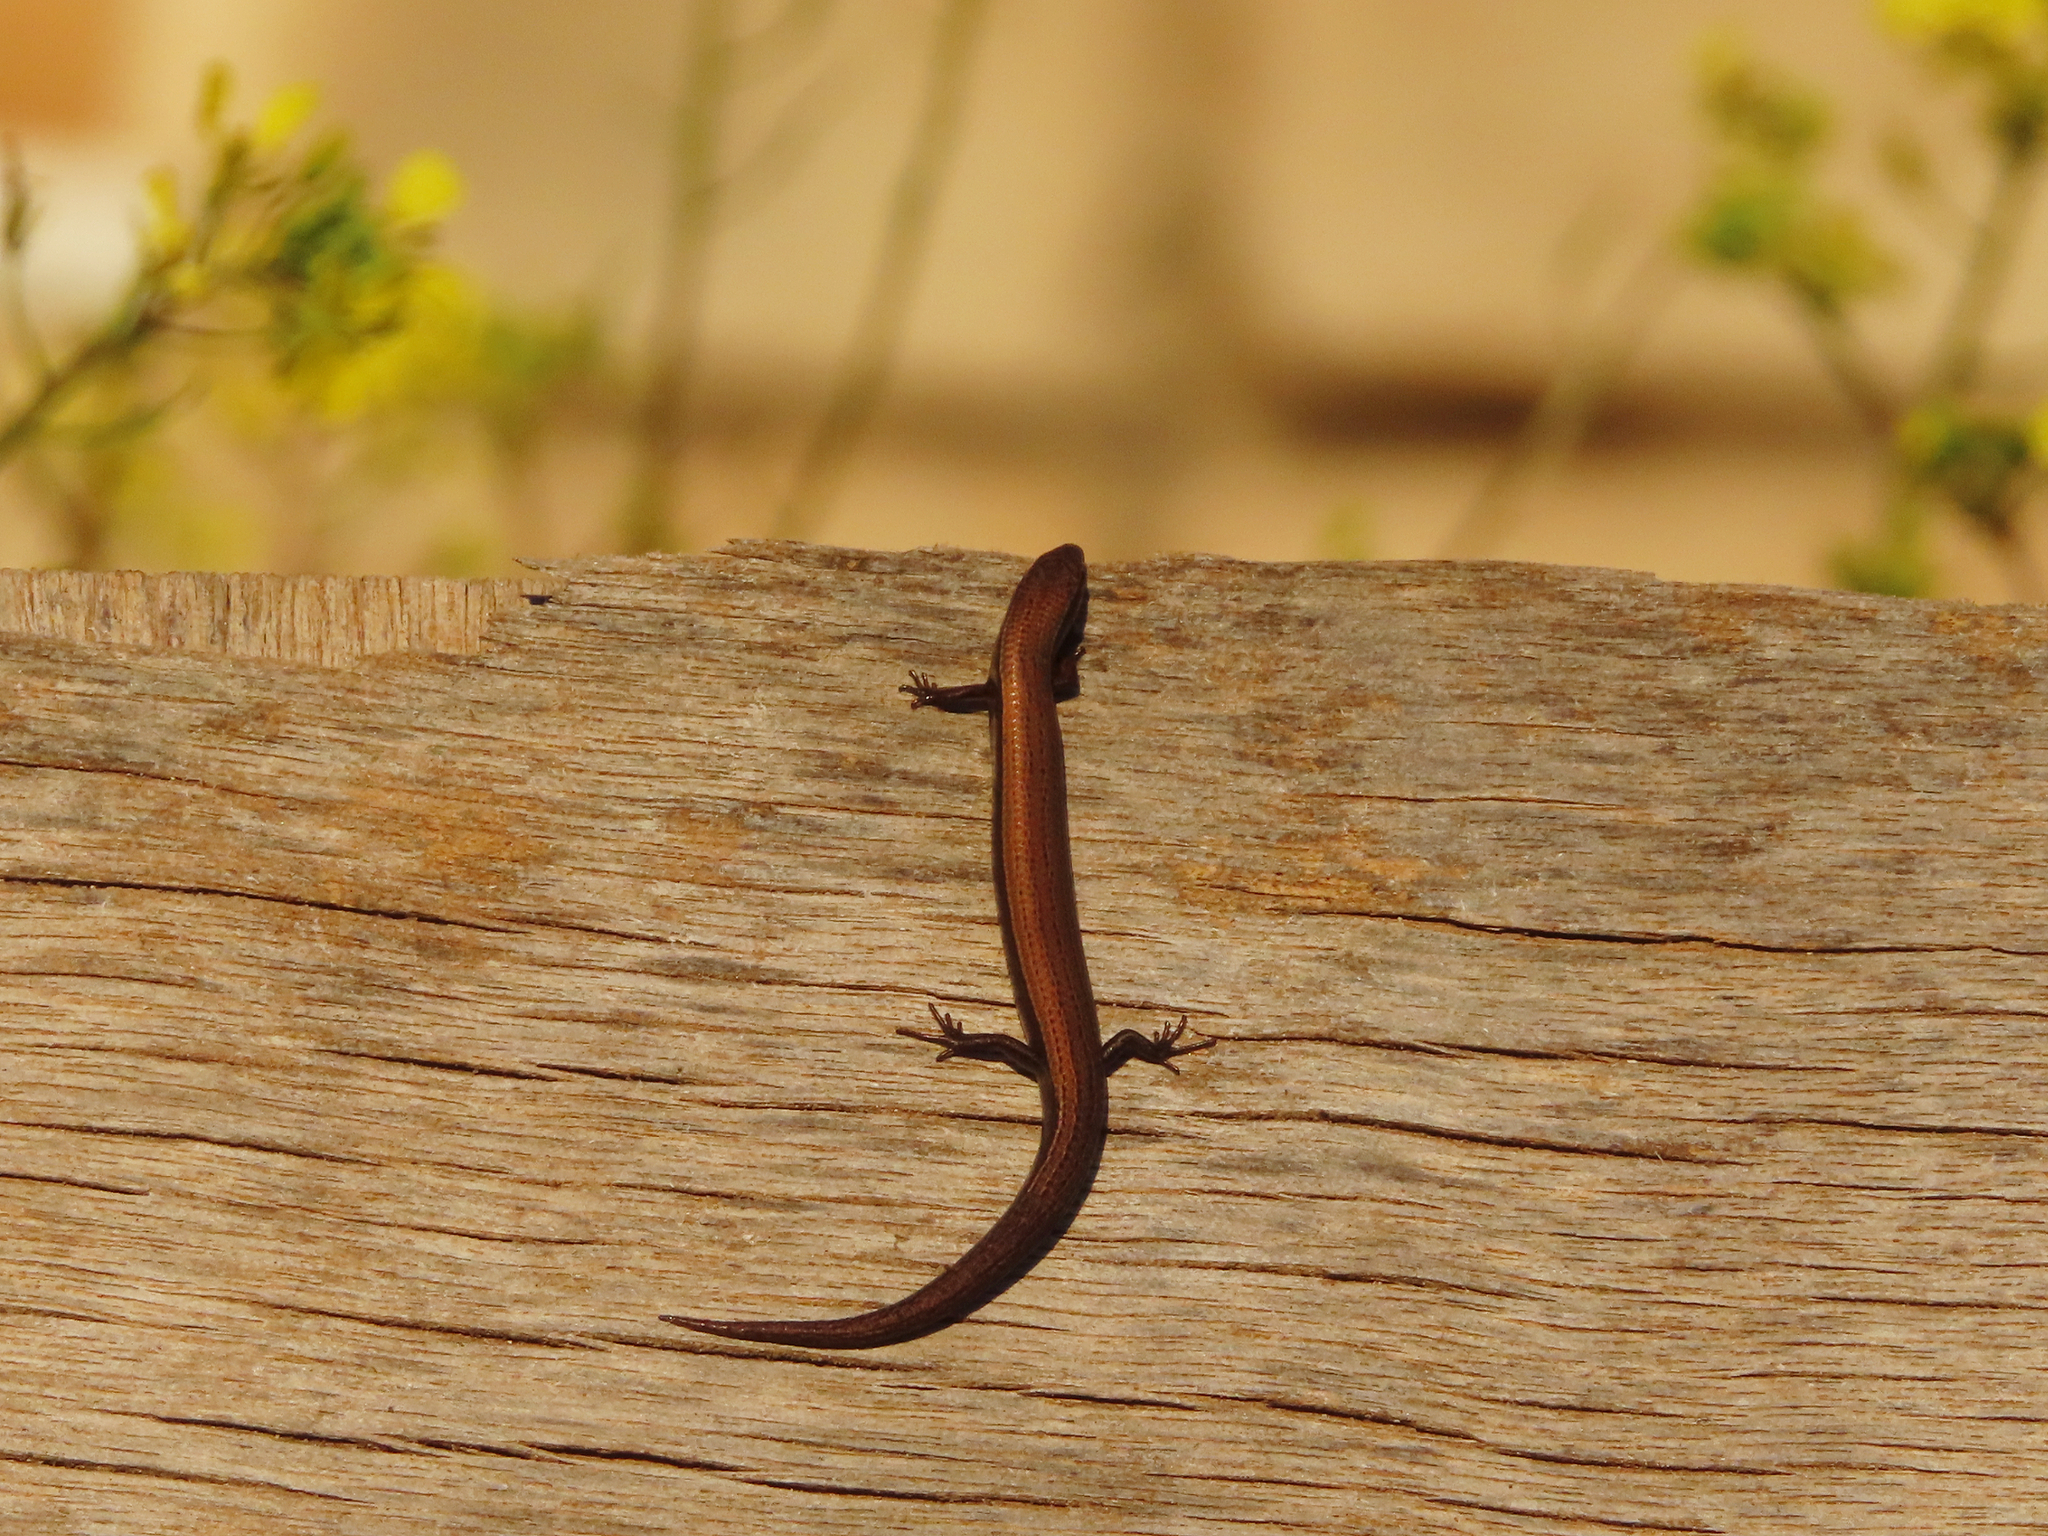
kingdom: Animalia
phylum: Chordata
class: Squamata
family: Scincidae
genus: Ablepharus
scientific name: Ablepharus kitaibelii
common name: Juniper skink
